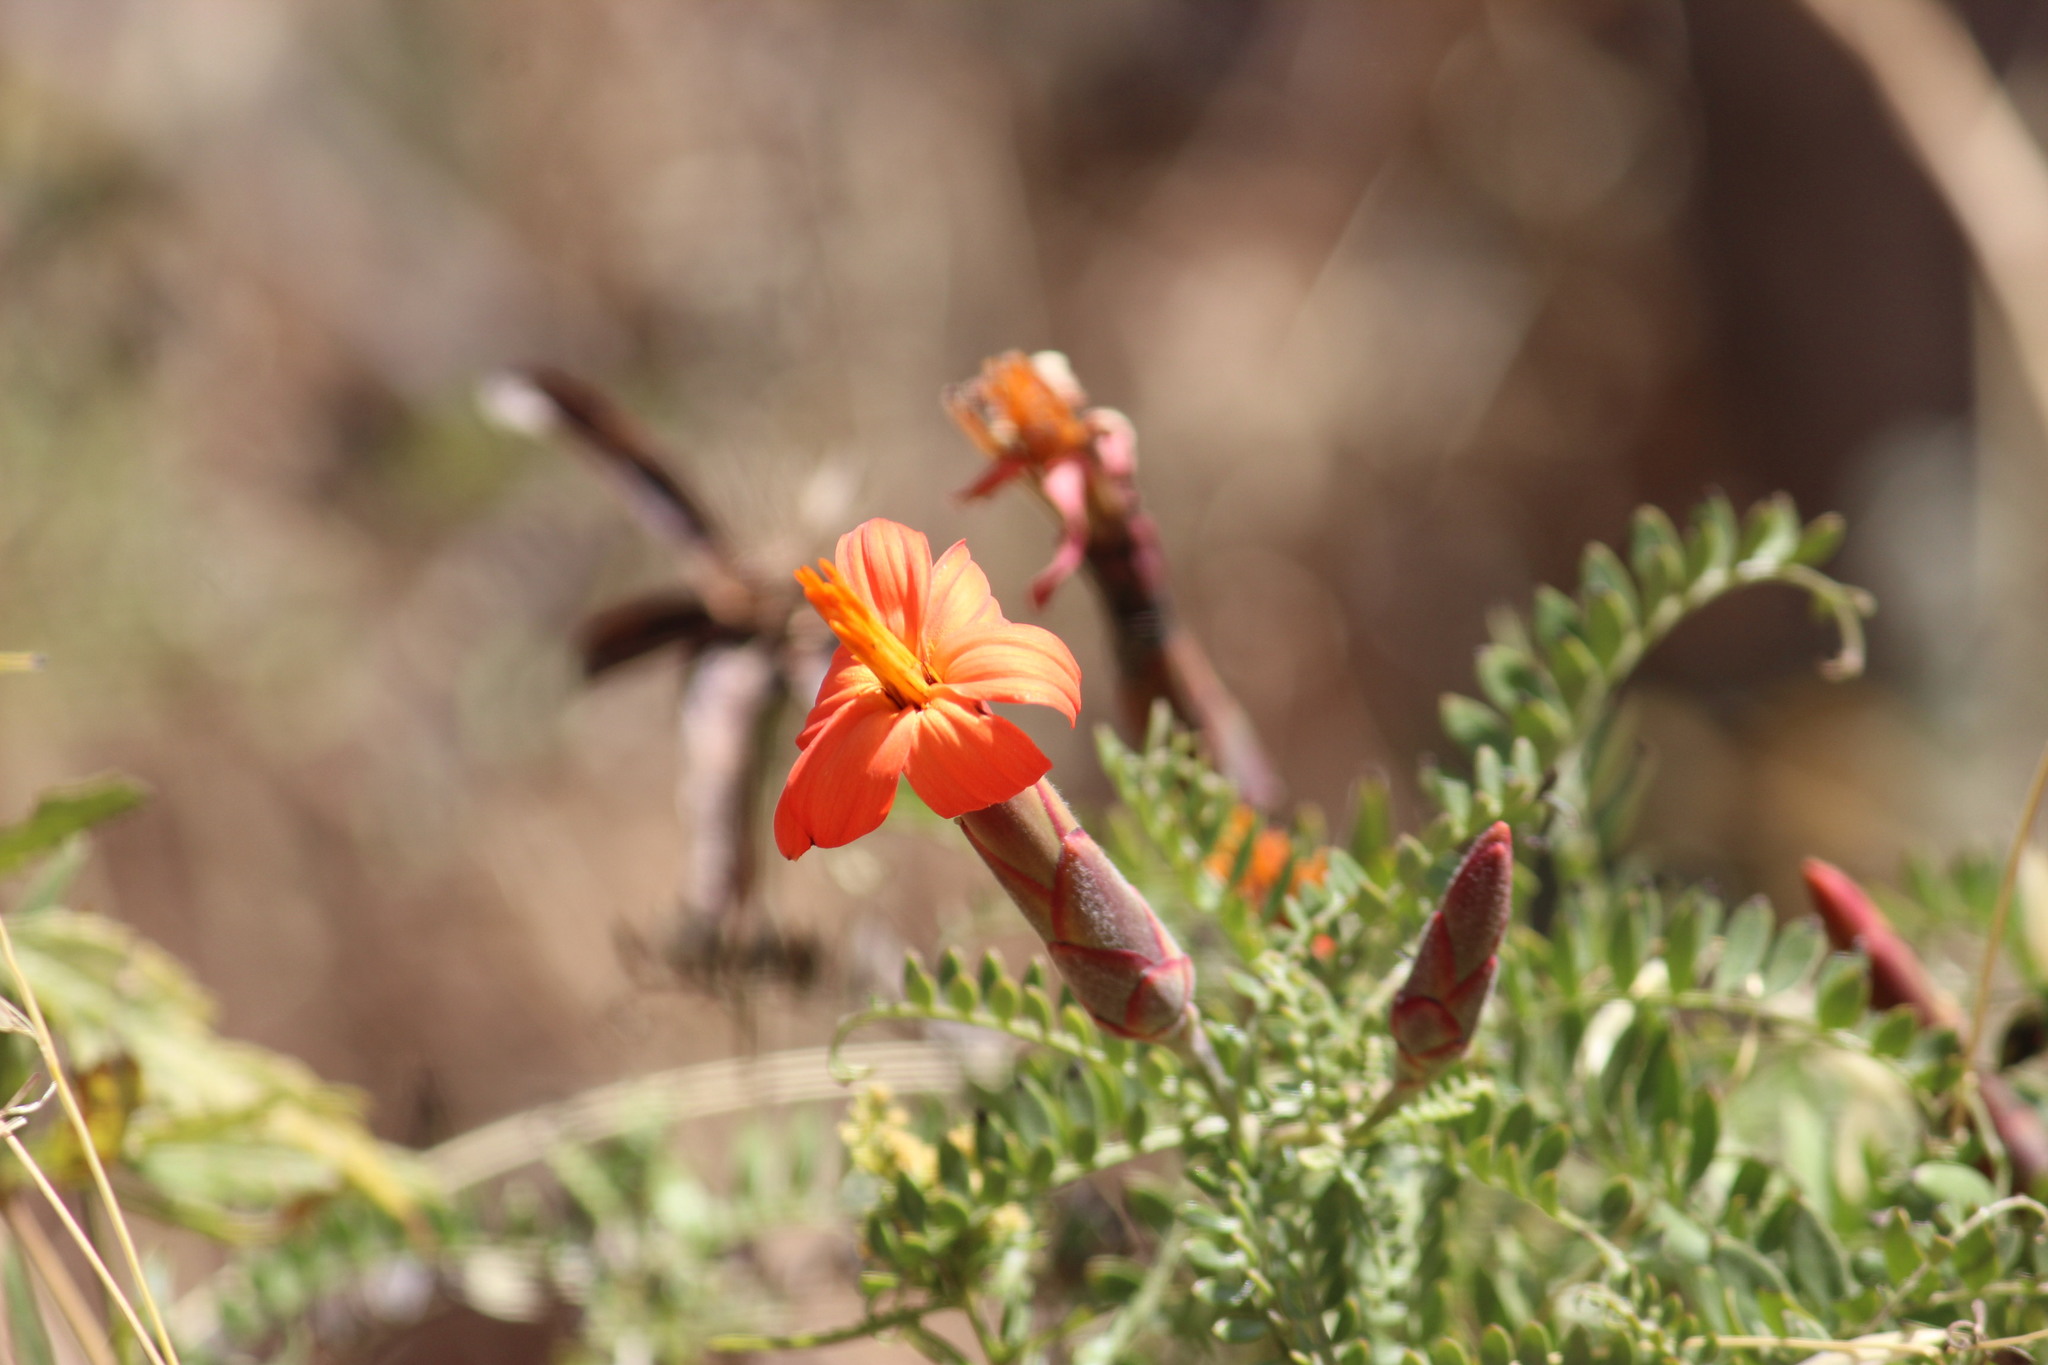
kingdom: Plantae
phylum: Tracheophyta
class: Magnoliopsida
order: Asterales
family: Asteraceae
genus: Mutisia
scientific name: Mutisia acuminata
